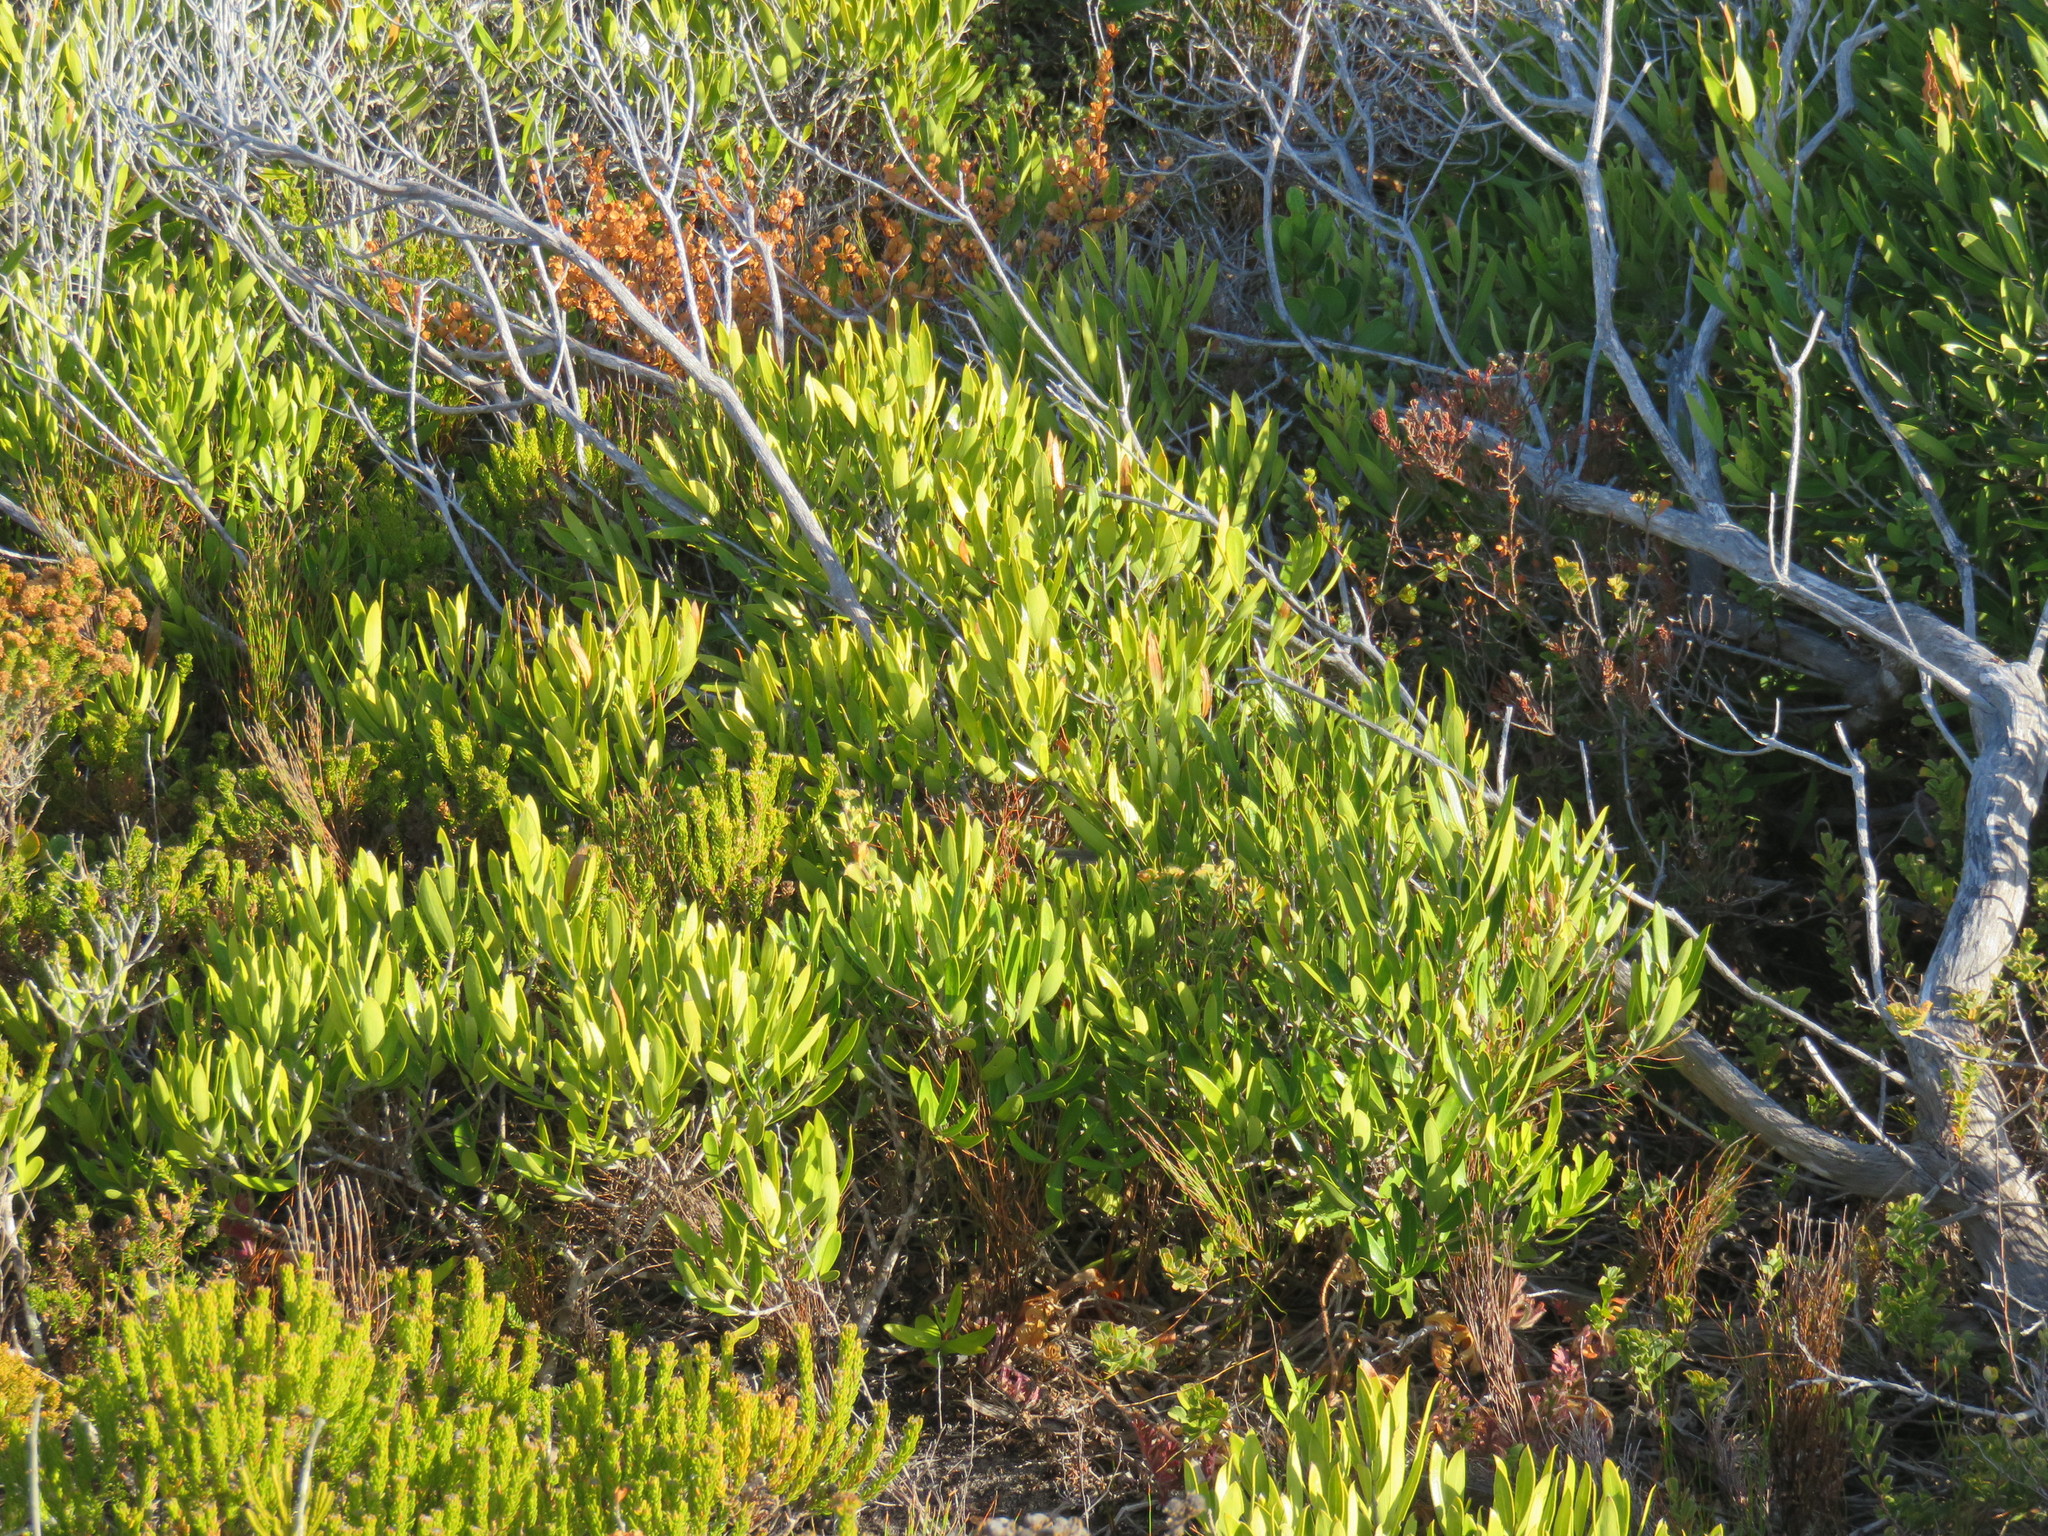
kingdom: Plantae
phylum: Tracheophyta
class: Magnoliopsida
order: Lamiales
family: Oleaceae
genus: Olea
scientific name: Olea exasperata
